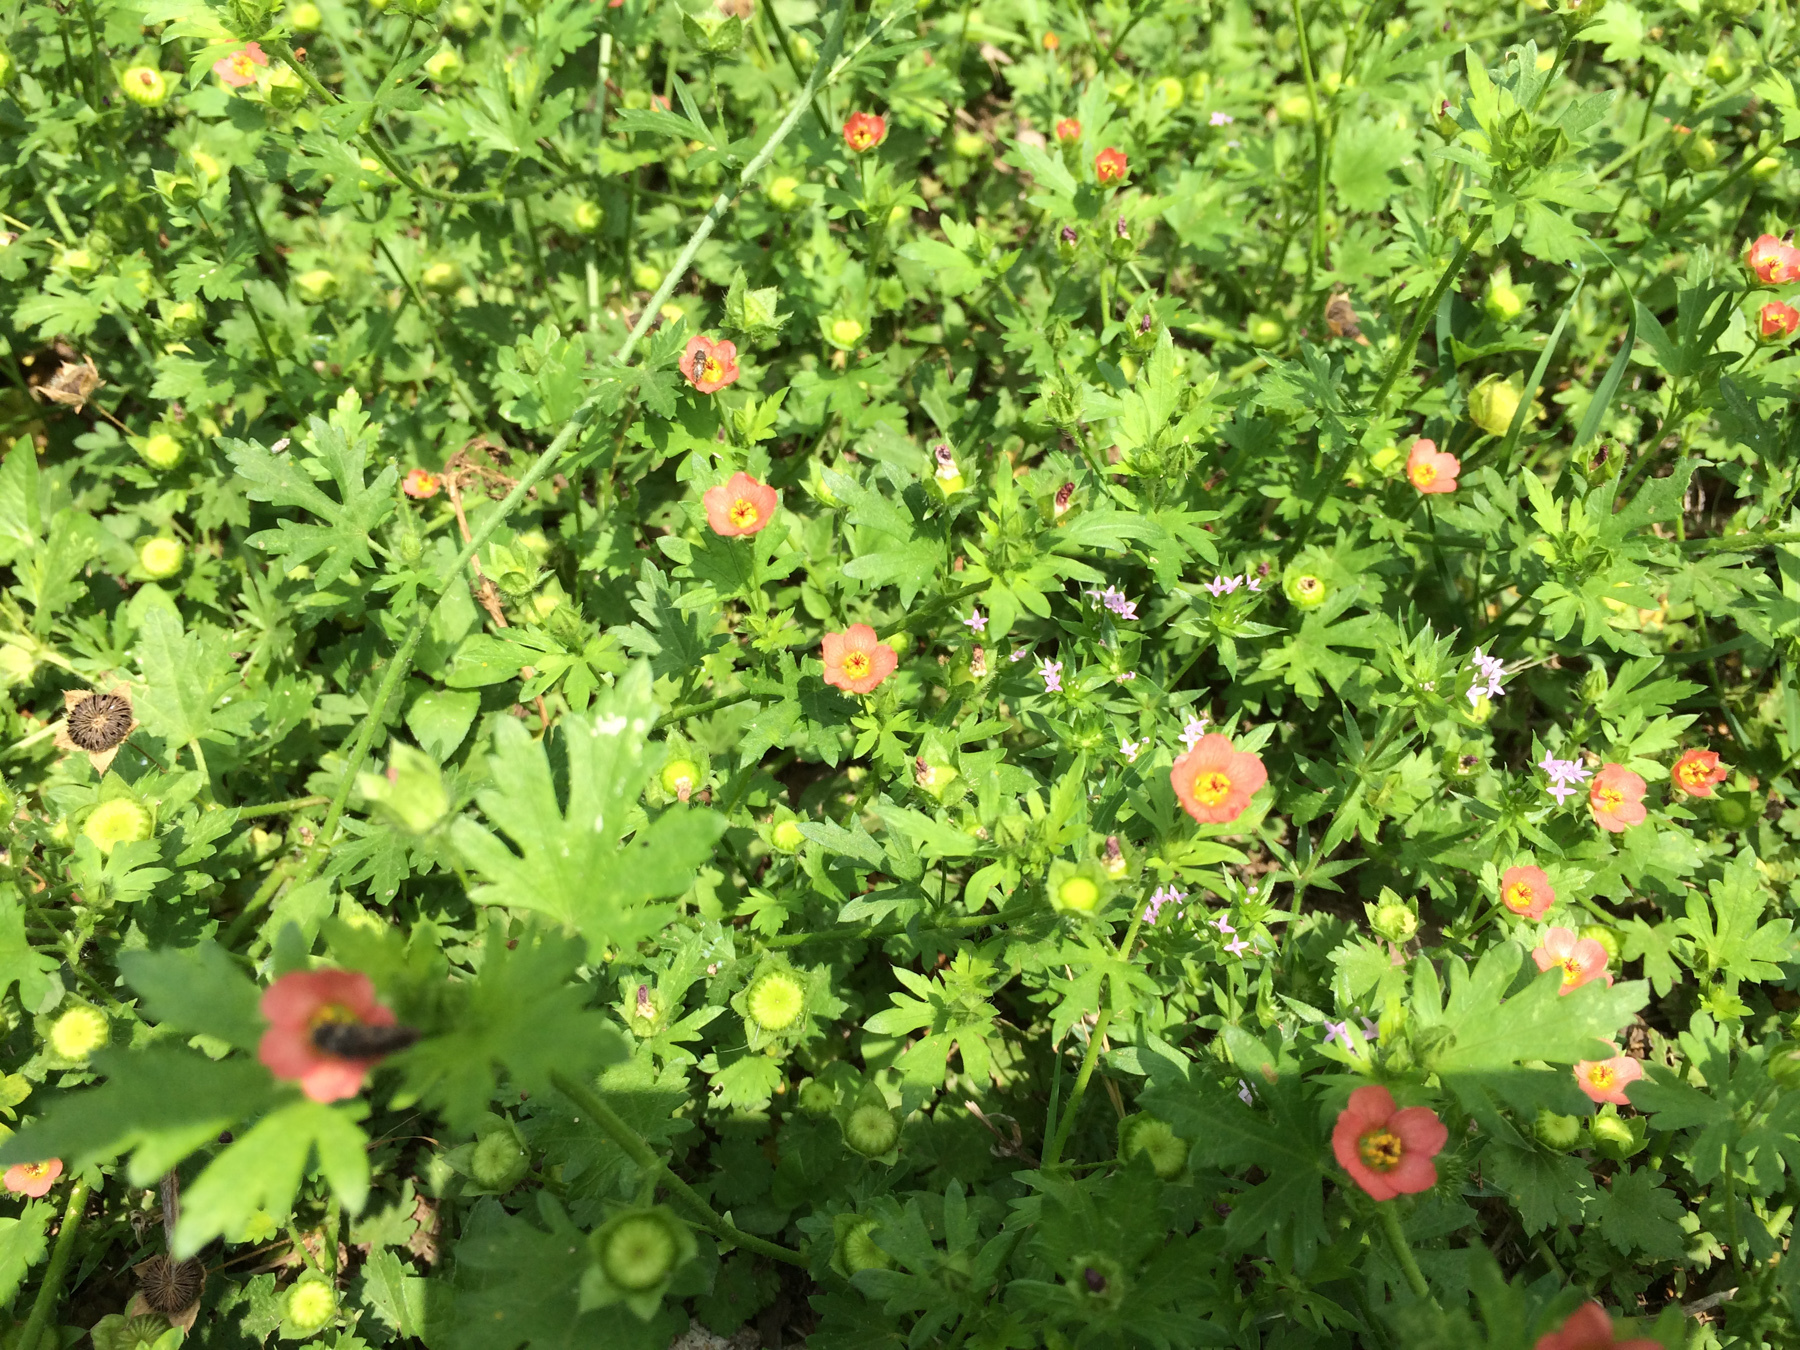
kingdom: Plantae
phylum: Tracheophyta
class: Magnoliopsida
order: Malvales
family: Malvaceae
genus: Modiola
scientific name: Modiola caroliniana
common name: Carolina bristlemallow
